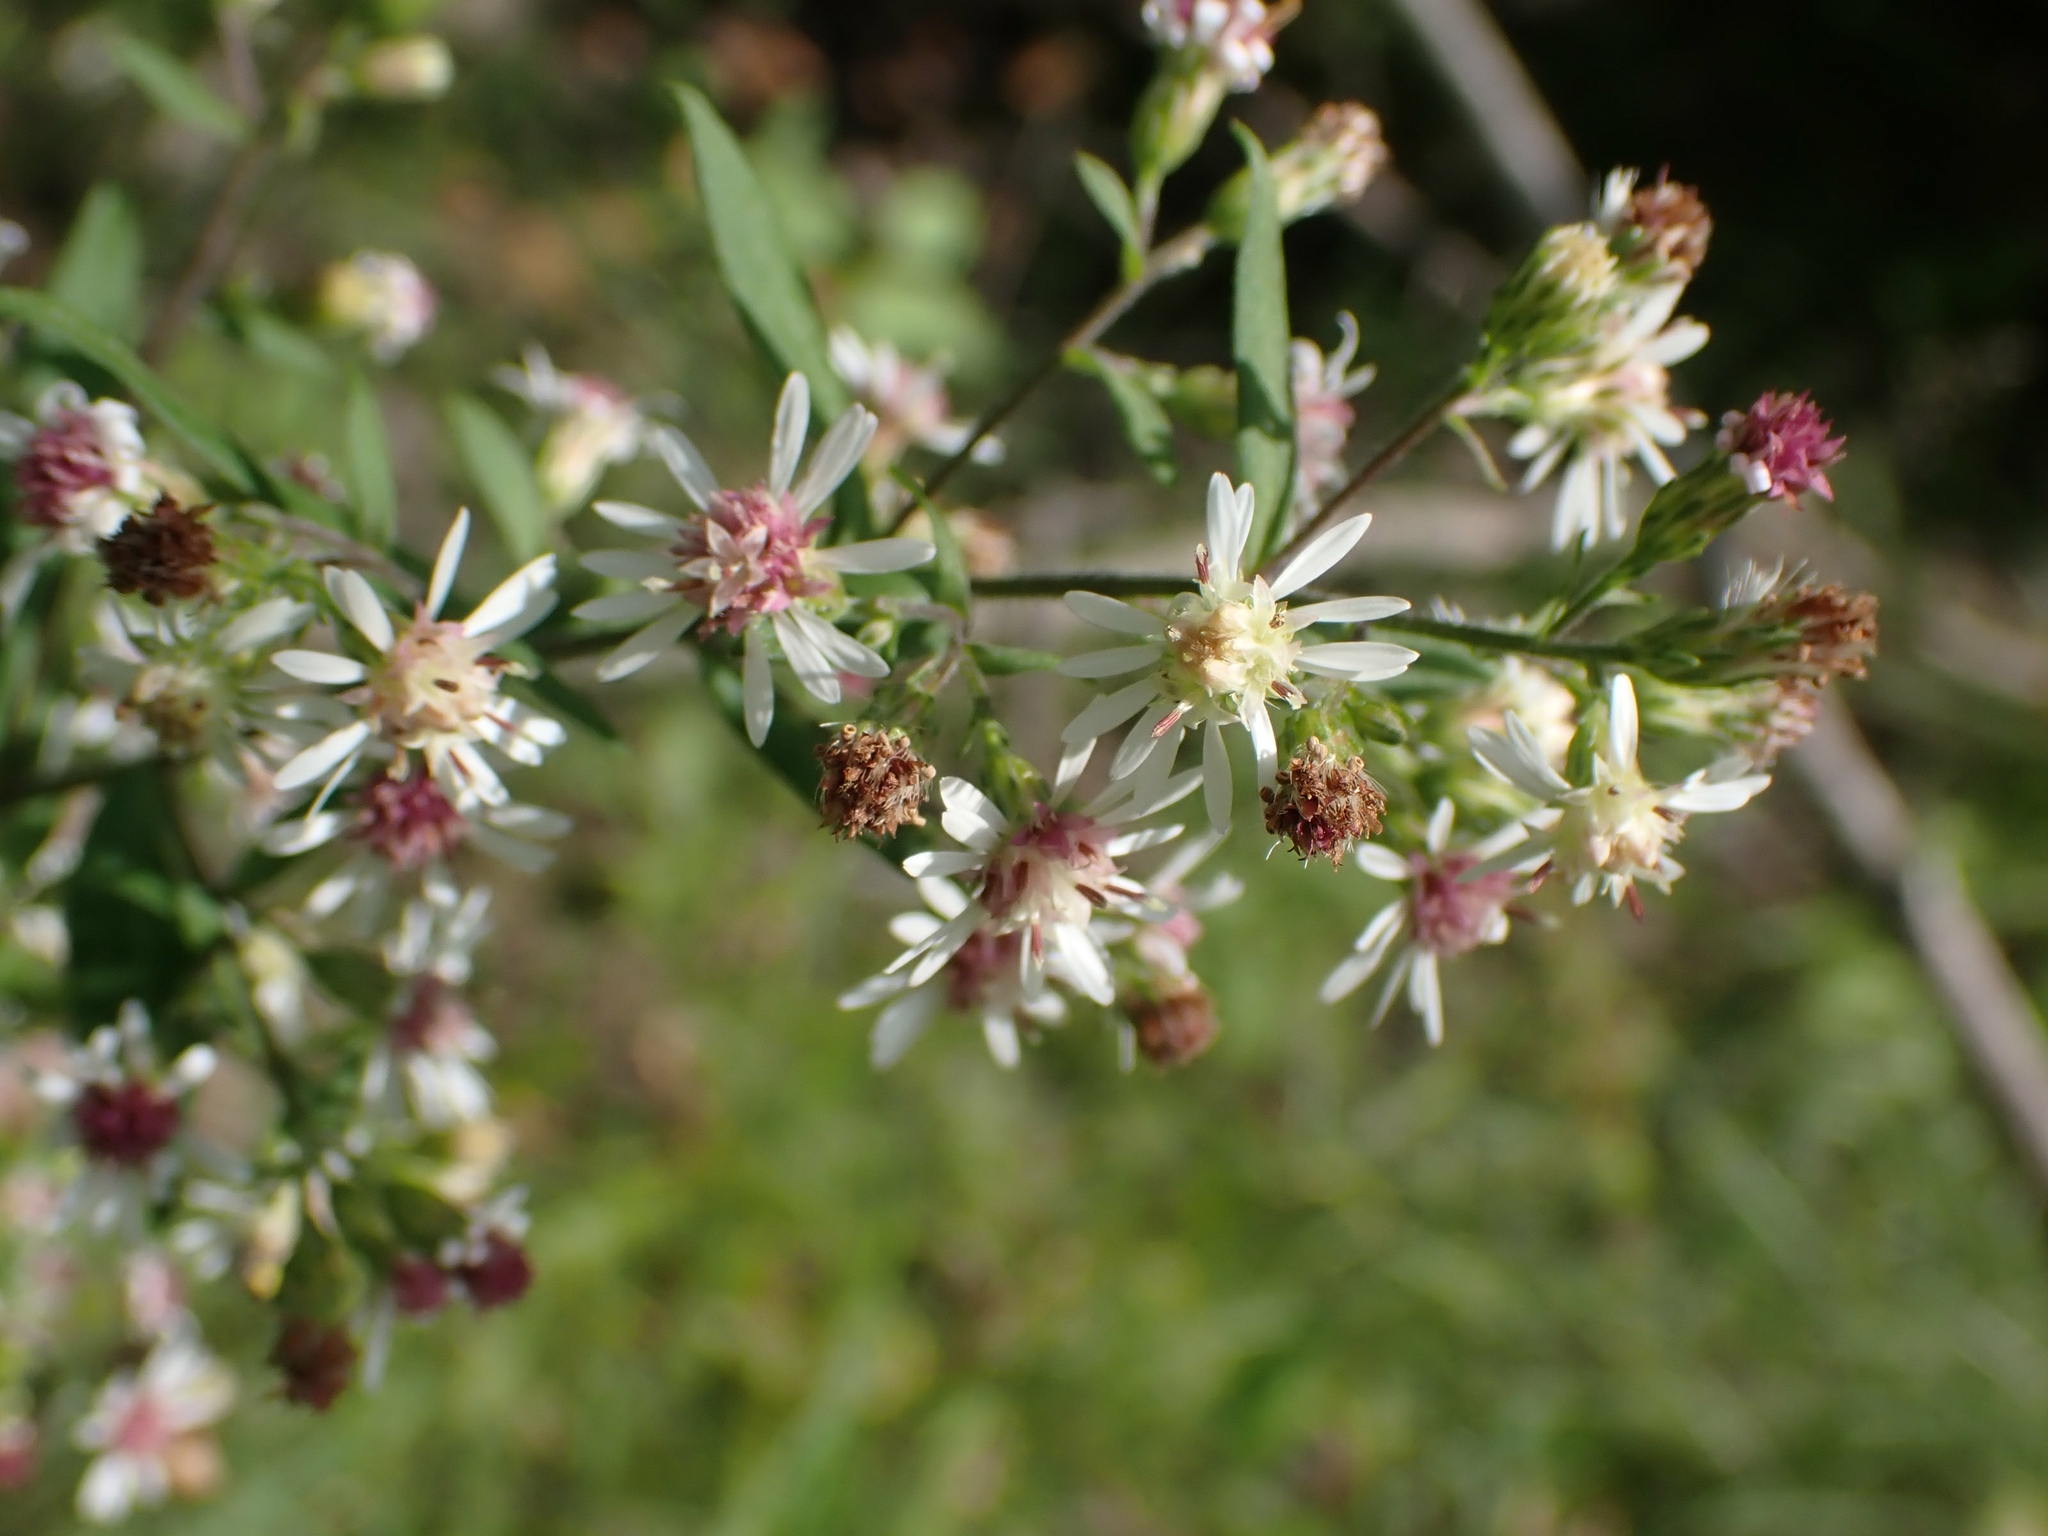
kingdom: Plantae
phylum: Tracheophyta
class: Magnoliopsida
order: Asterales
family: Asteraceae
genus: Symphyotrichum
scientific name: Symphyotrichum lateriflorum
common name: Calico aster
